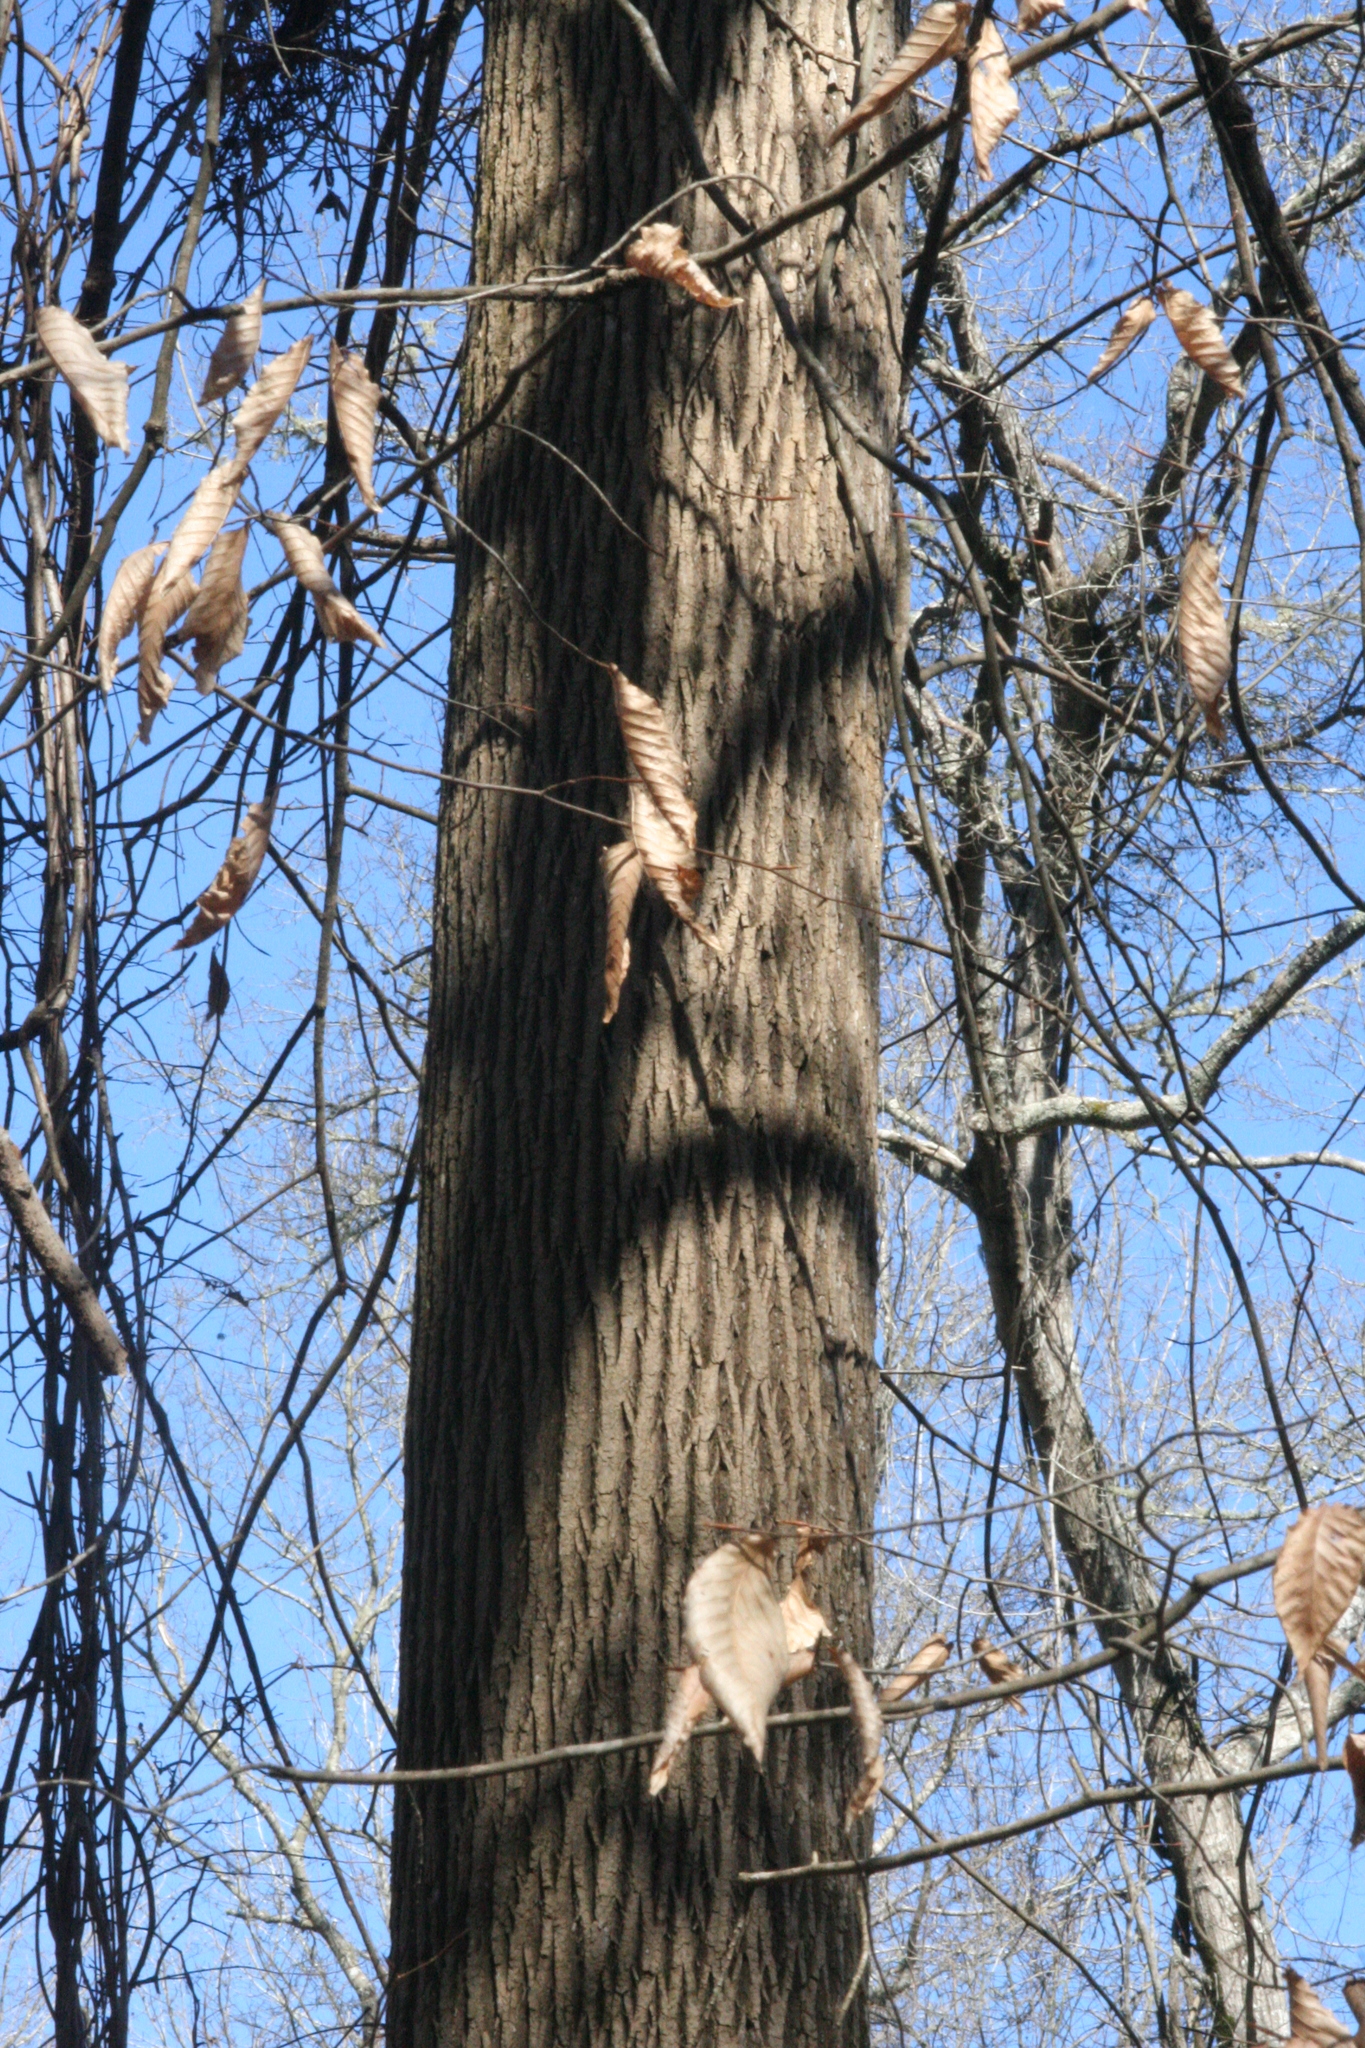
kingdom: Plantae
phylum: Tracheophyta
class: Magnoliopsida
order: Sapindales
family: Sapindaceae
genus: Acer
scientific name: Acer negundo
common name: Ashleaf maple
